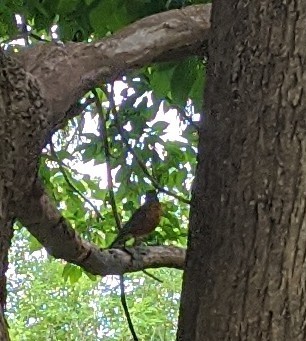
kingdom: Animalia
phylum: Chordata
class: Aves
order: Passeriformes
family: Turdidae
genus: Turdus
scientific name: Turdus migratorius
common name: American robin
